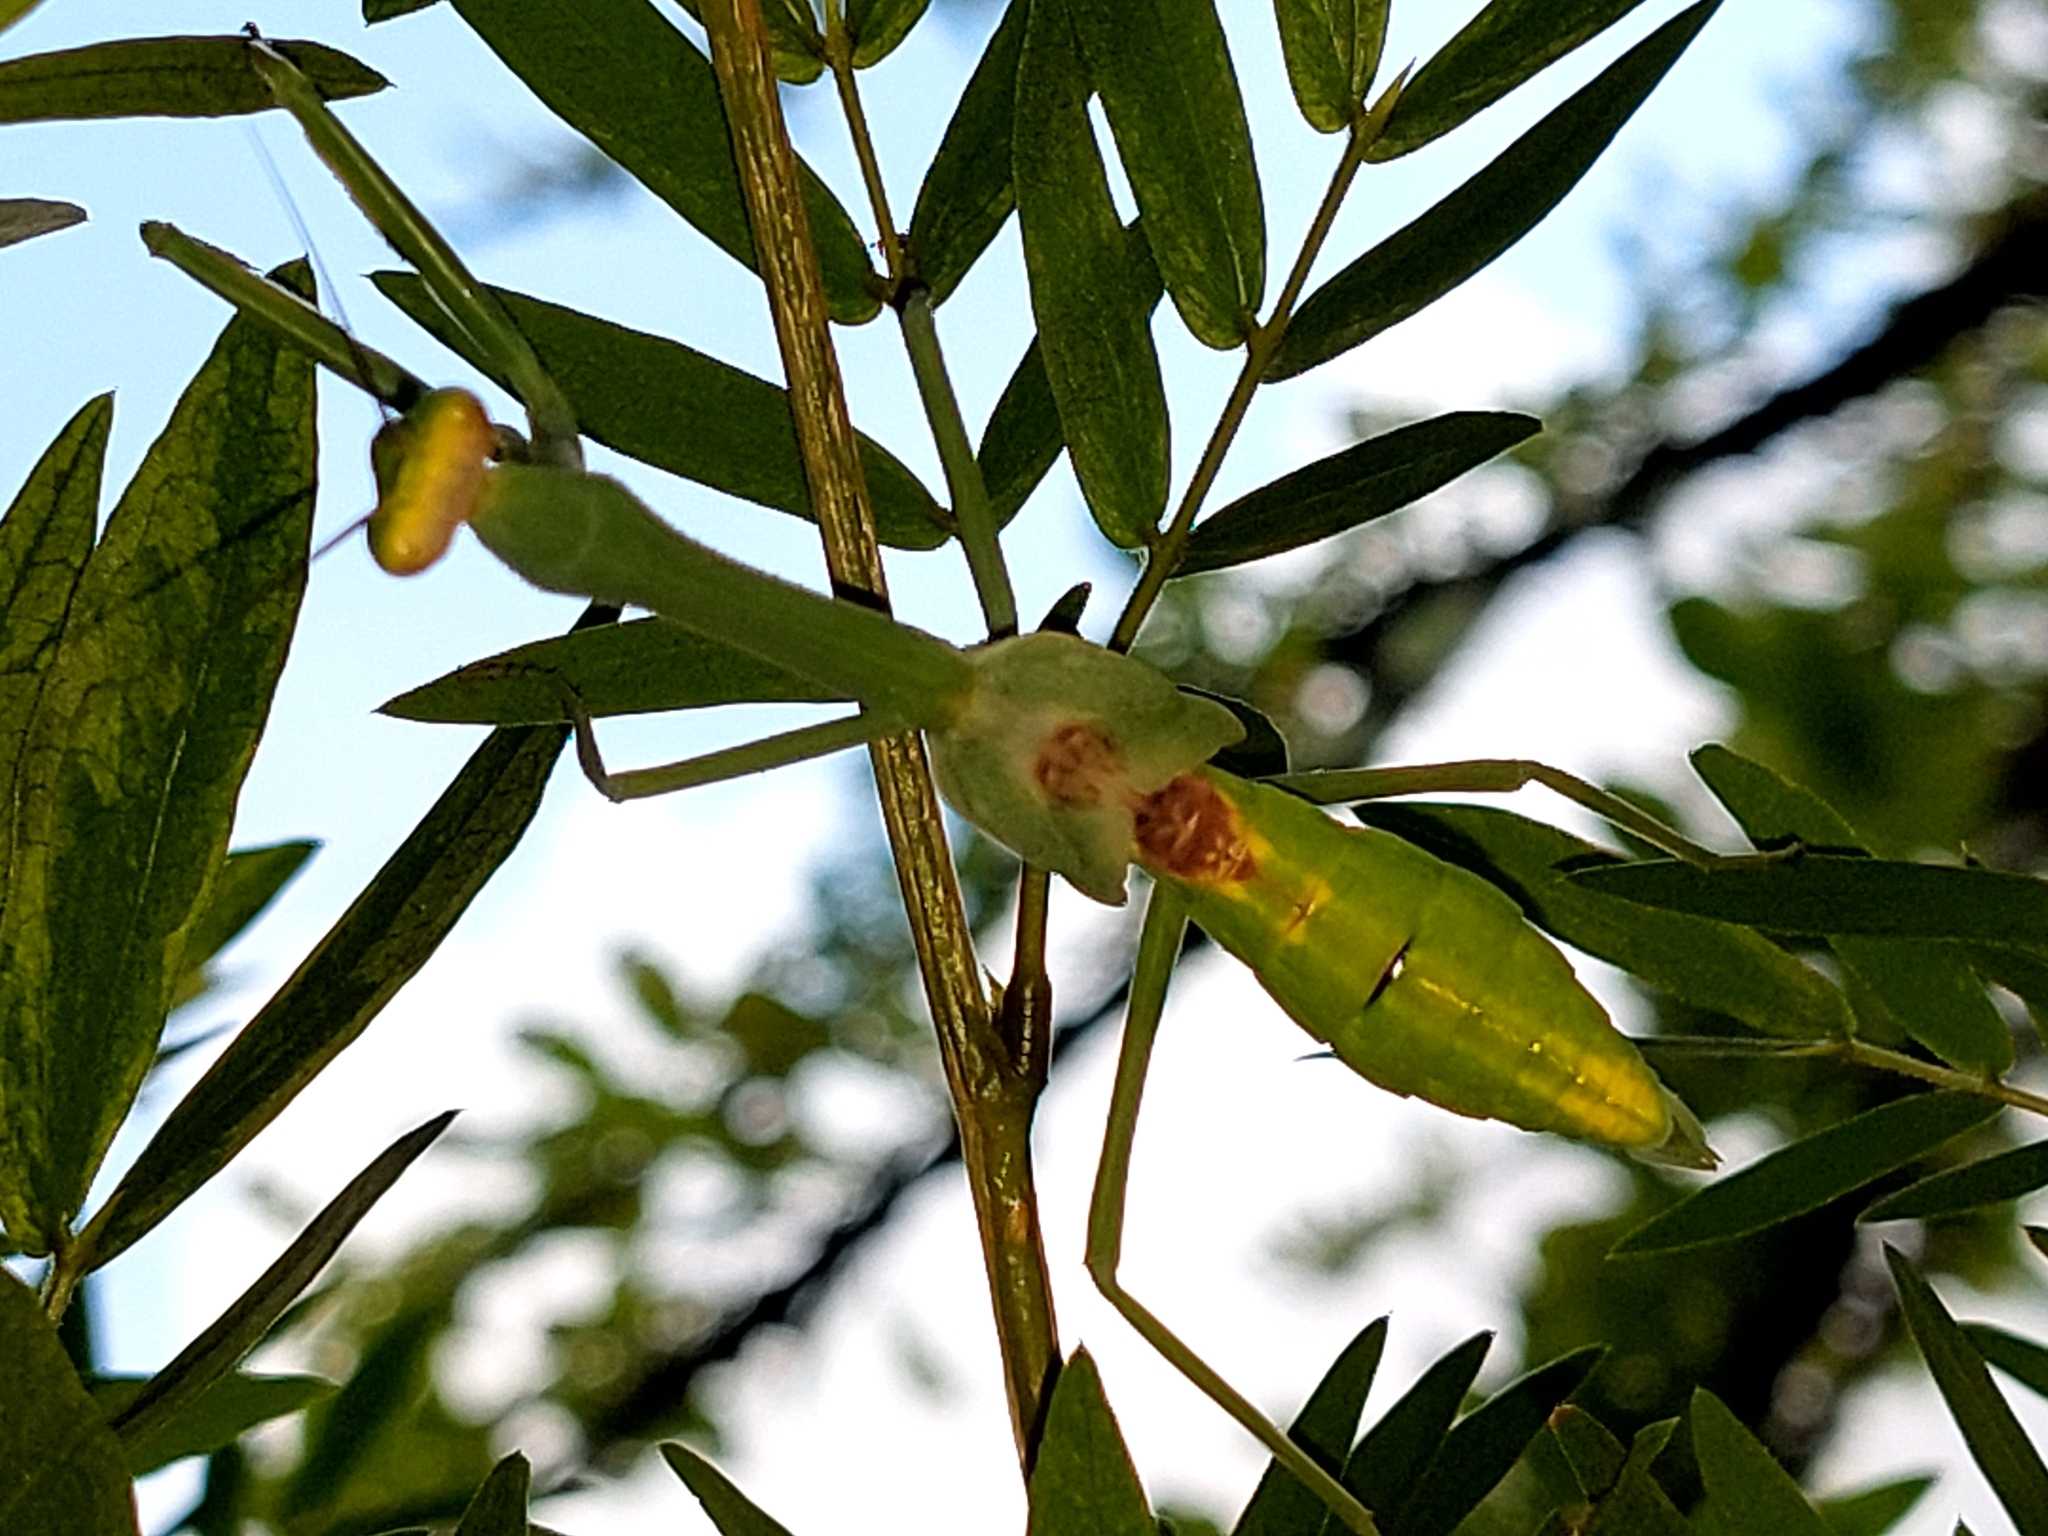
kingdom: Animalia
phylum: Arthropoda
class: Insecta
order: Mantodea
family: Mantidae
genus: Stagmatoptera
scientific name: Stagmatoptera septentrionalis
